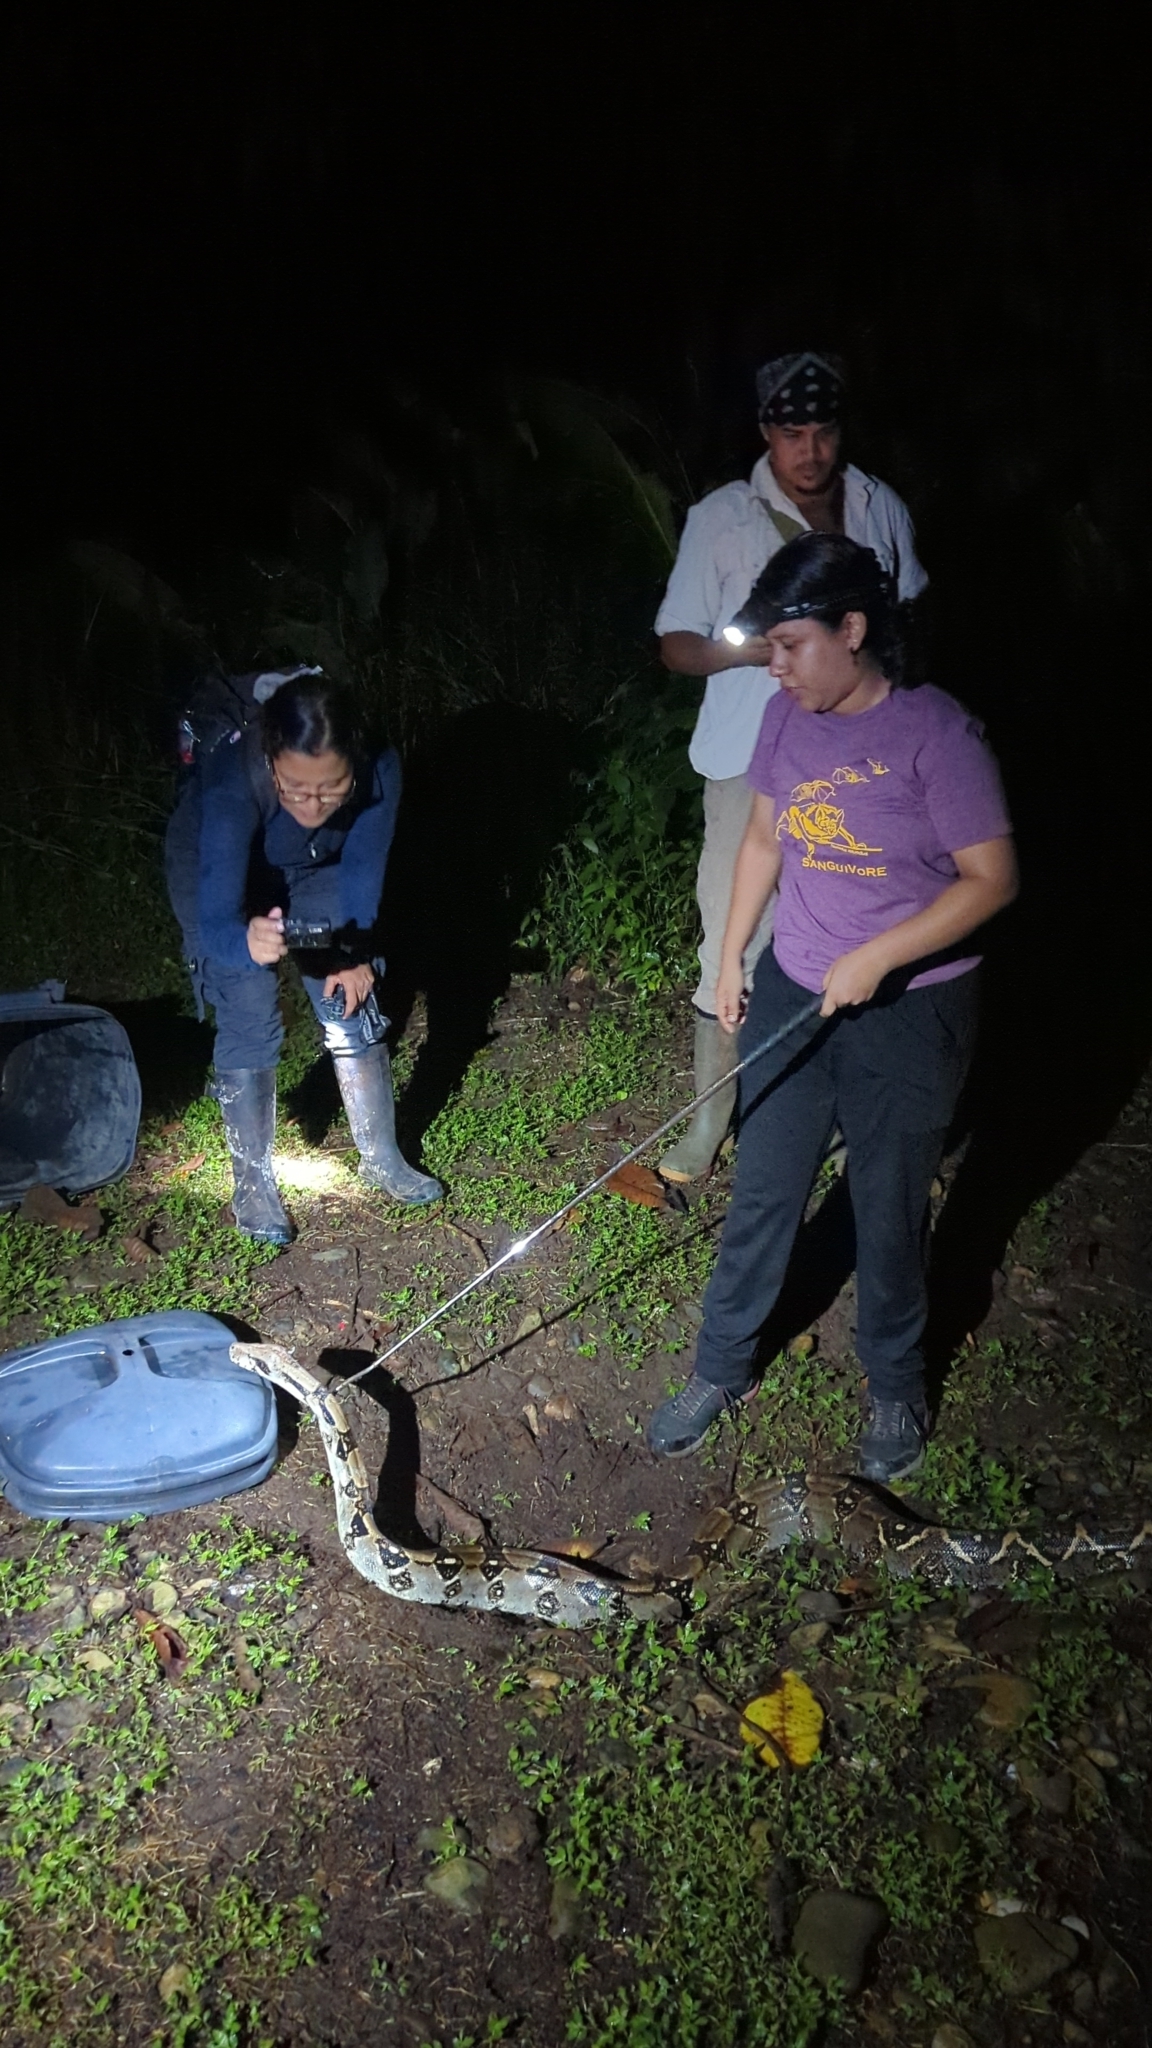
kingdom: Animalia
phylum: Chordata
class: Squamata
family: Boidae
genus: Boa
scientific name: Boa imperator
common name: Central american boa
